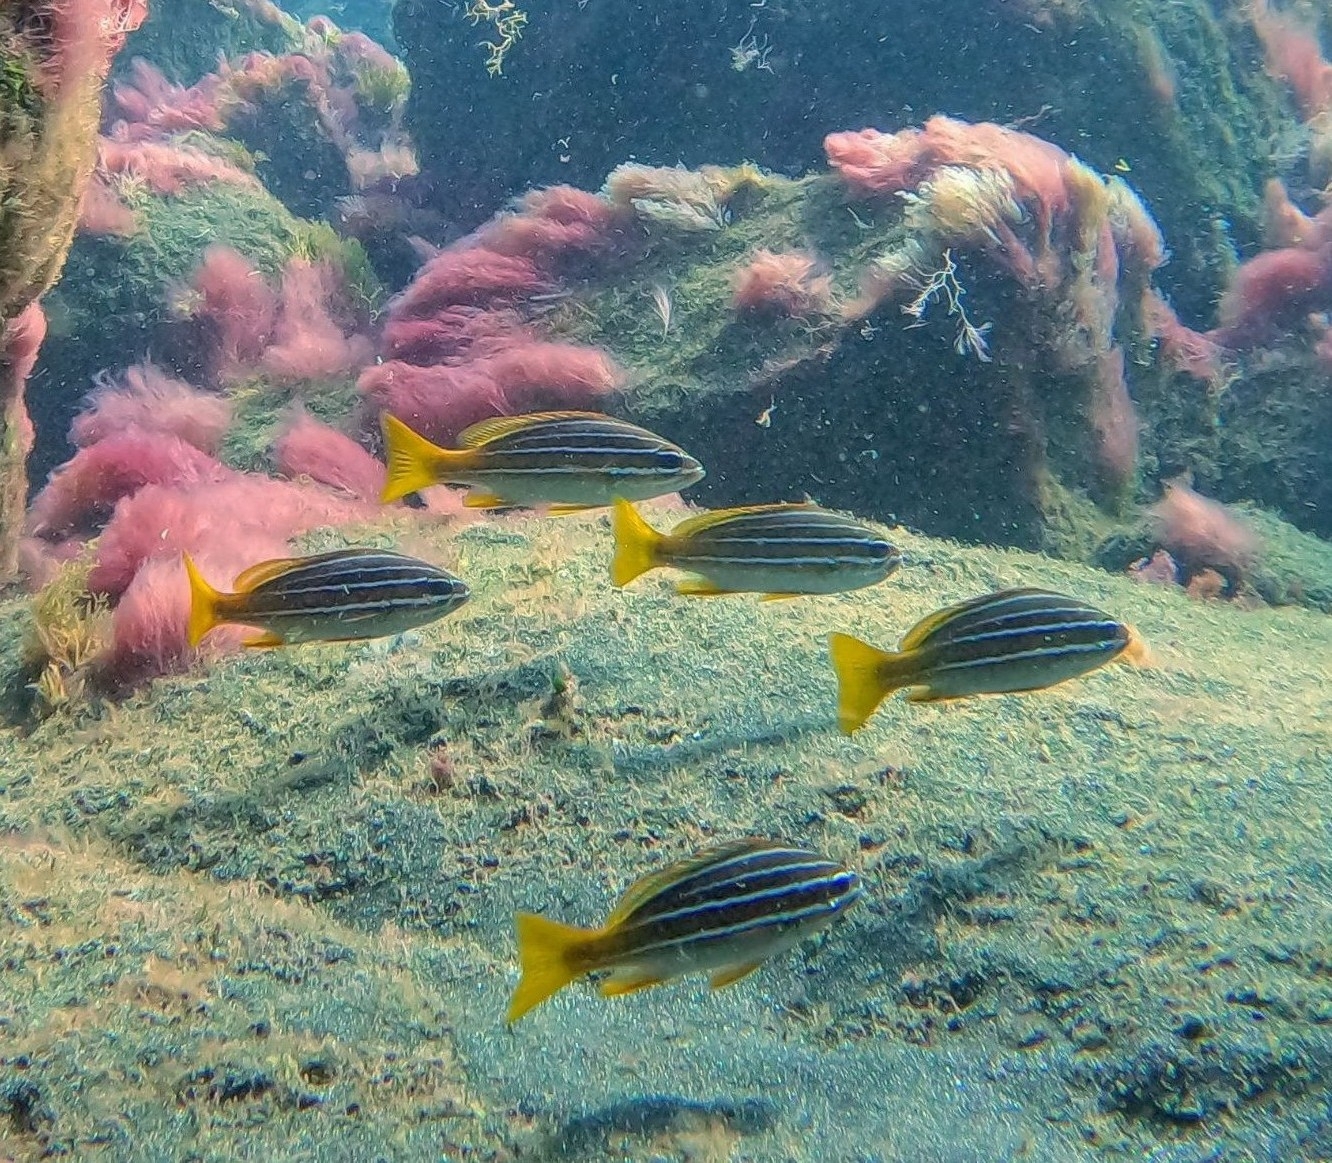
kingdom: Animalia
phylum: Chordata
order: Perciformes
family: Haemulidae
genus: Parapristipoma
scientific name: Parapristipoma octolineatum
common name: African striped grunt
